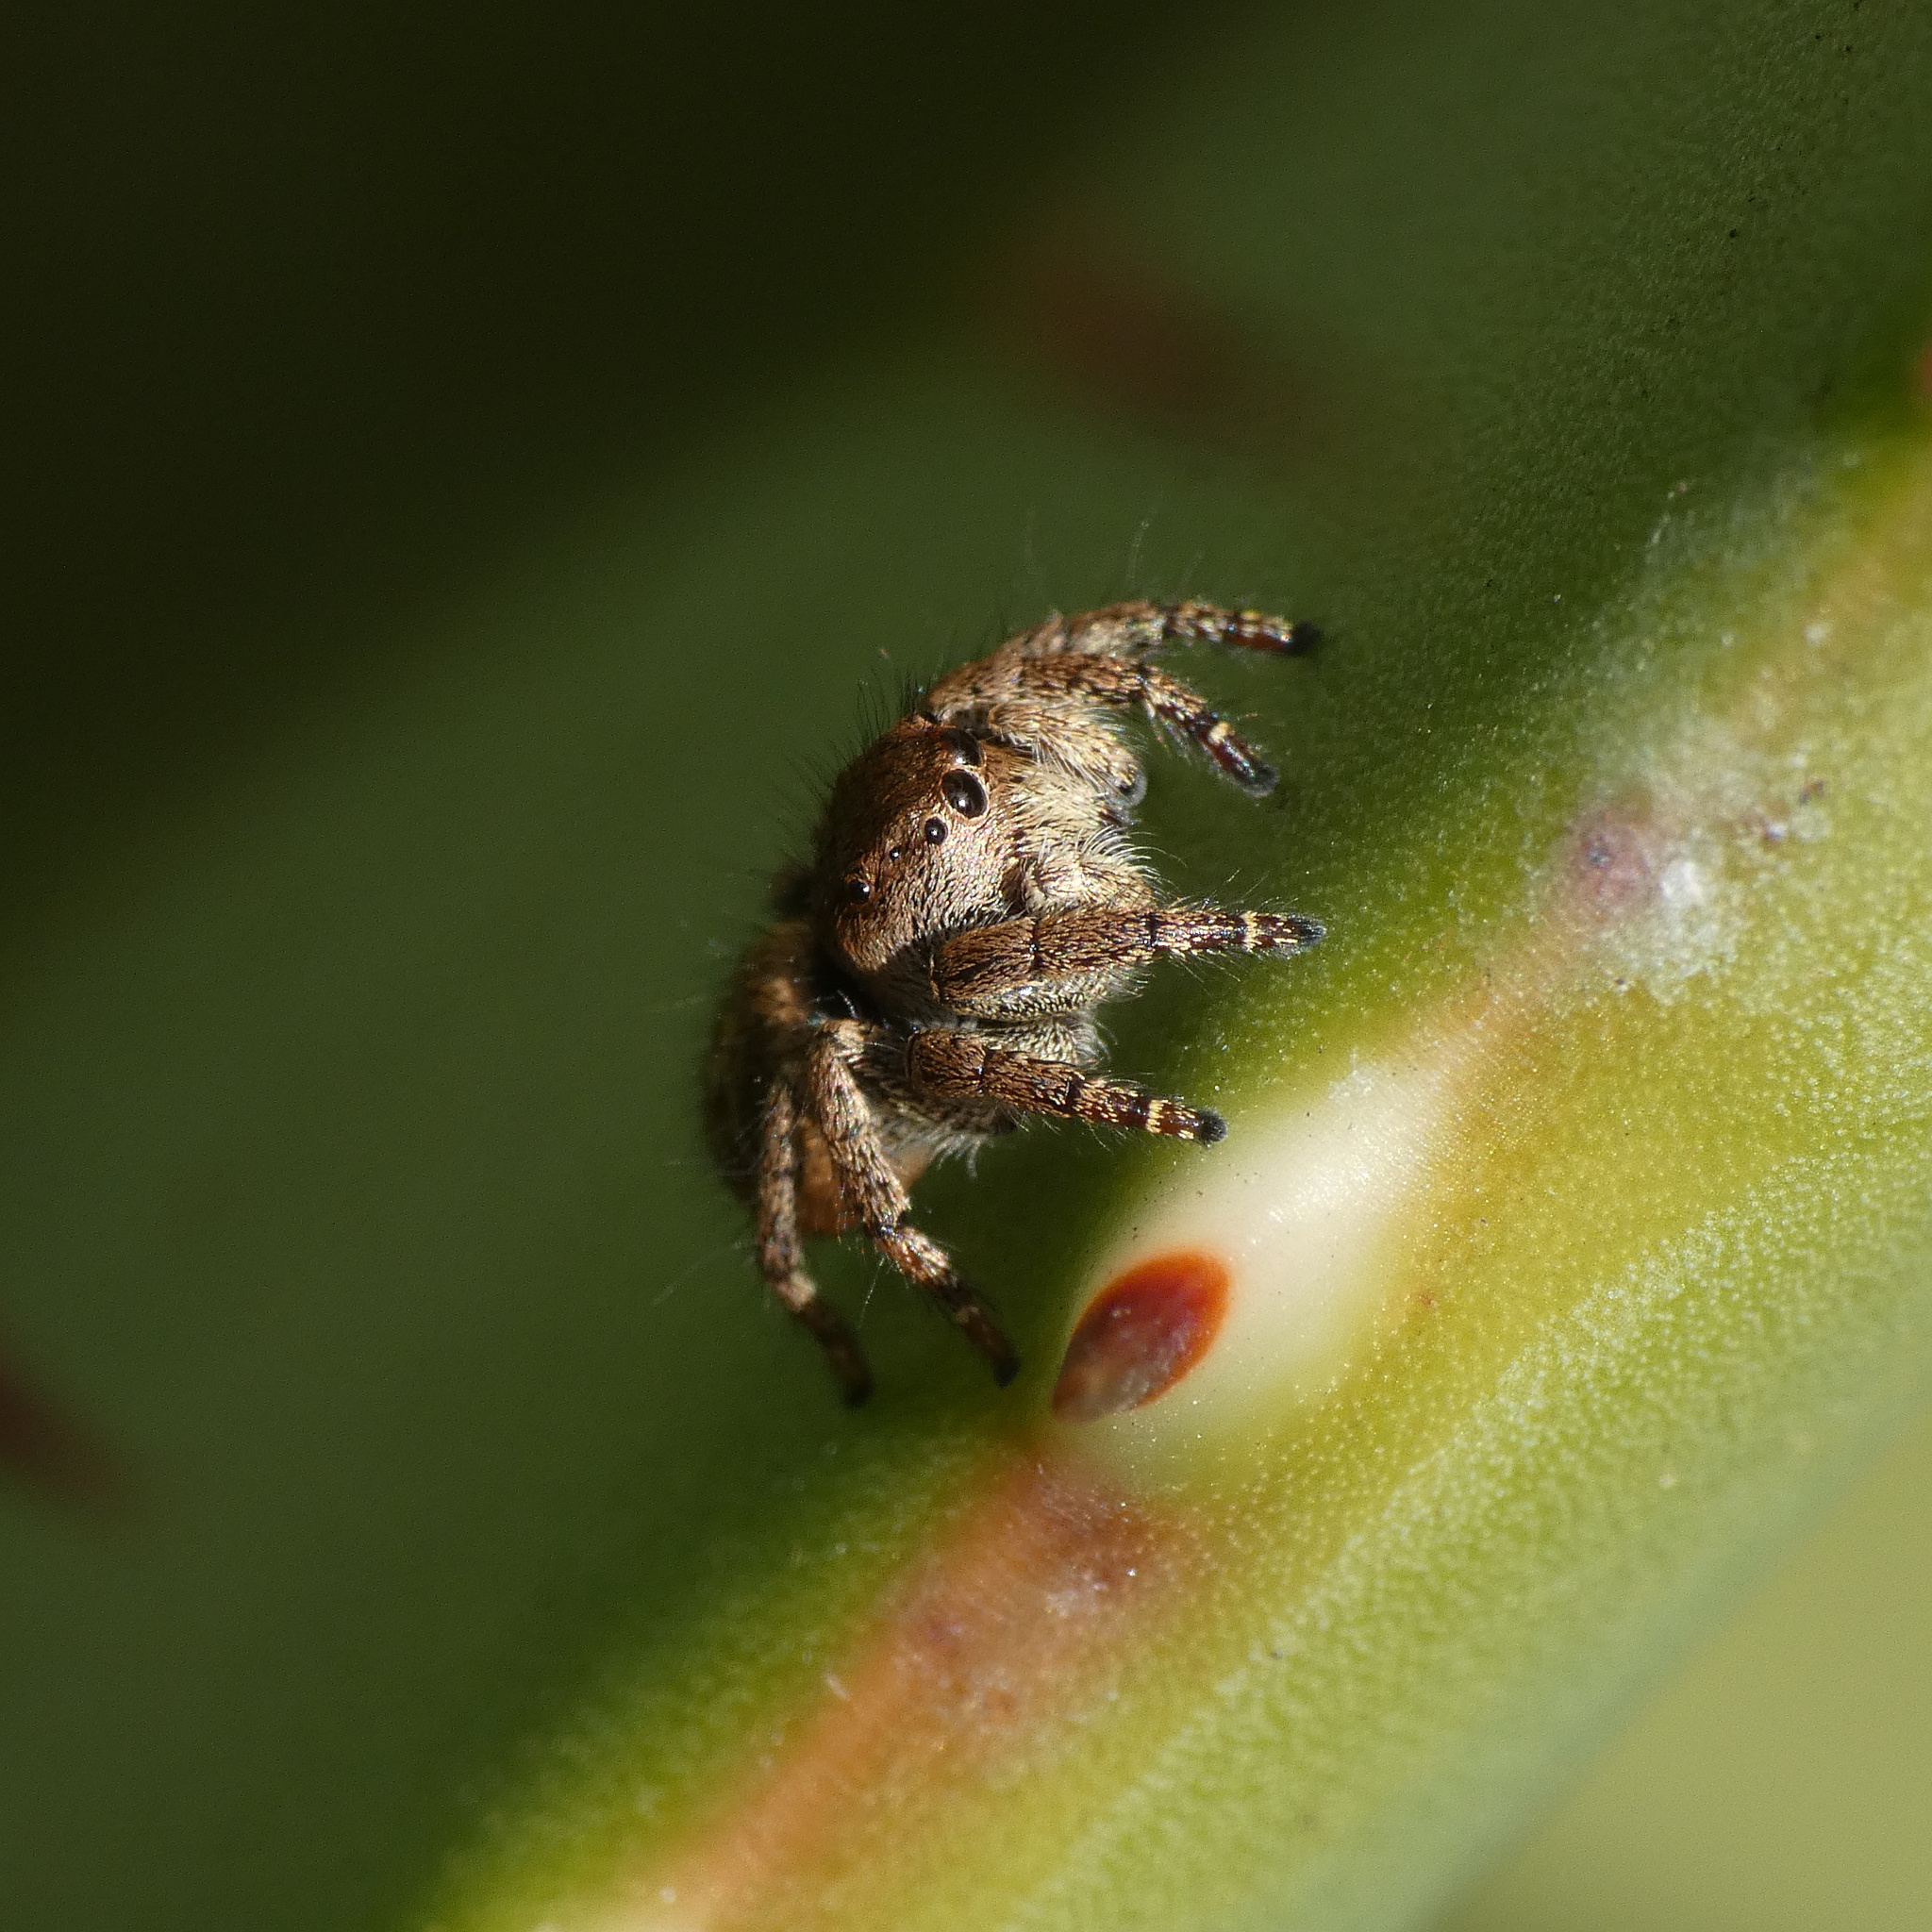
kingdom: Animalia
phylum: Arthropoda
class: Arachnida
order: Araneae
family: Salticidae
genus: Baryphas
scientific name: Baryphas ahenus
